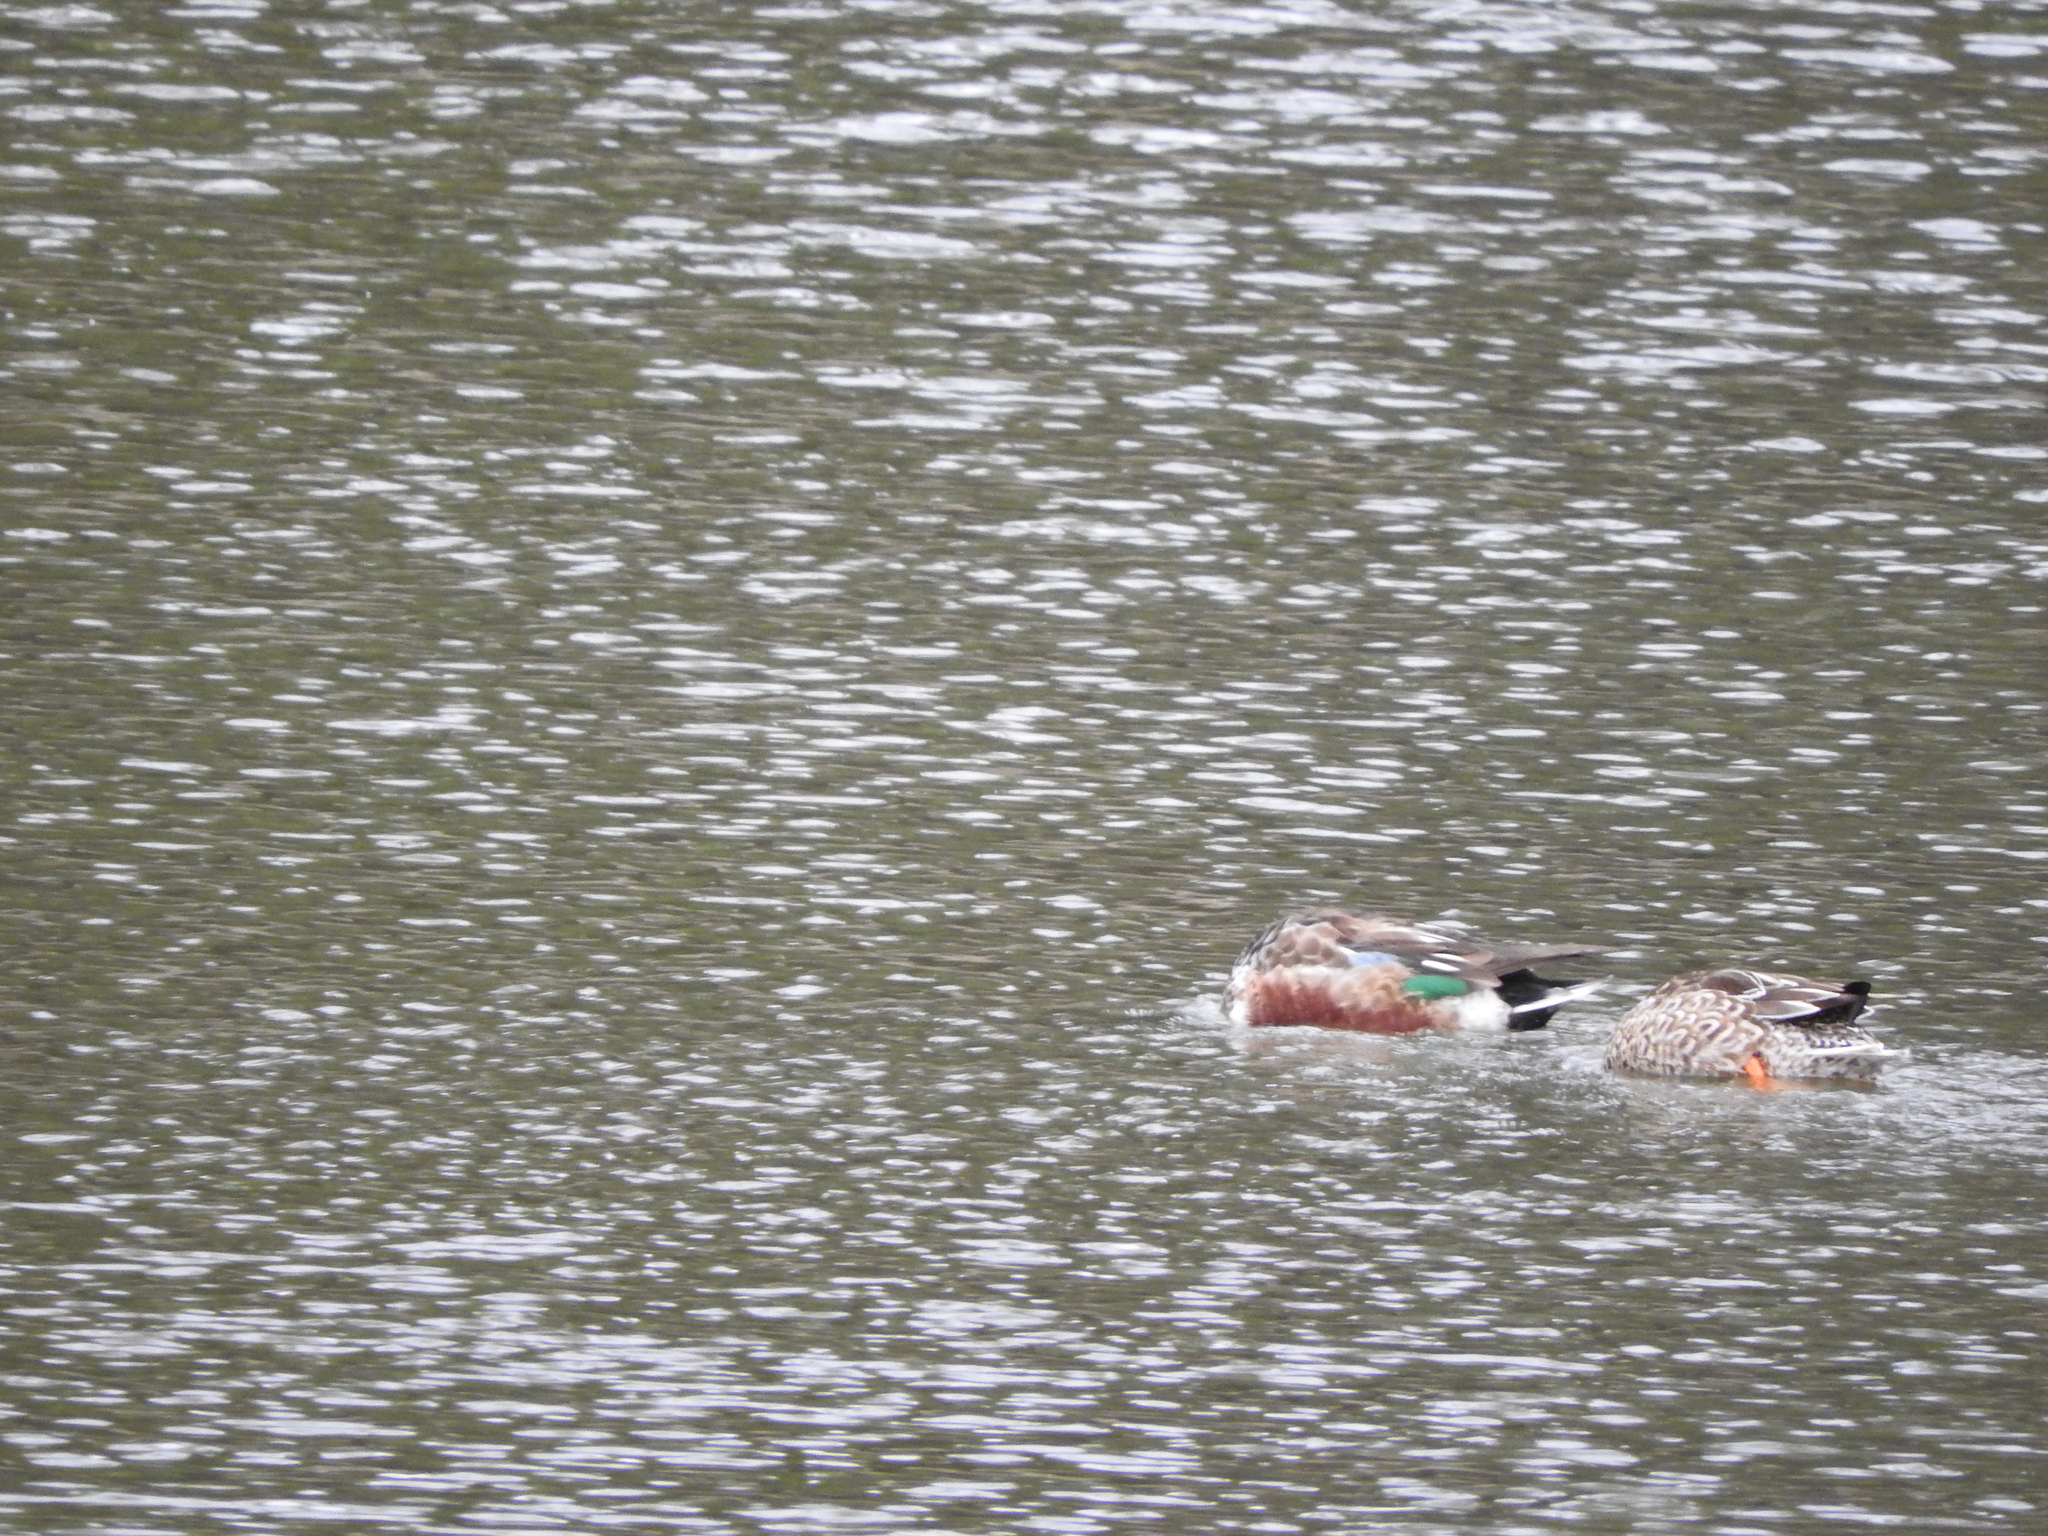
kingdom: Animalia
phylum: Chordata
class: Aves
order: Anseriformes
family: Anatidae
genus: Spatula
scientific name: Spatula clypeata
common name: Northern shoveler
